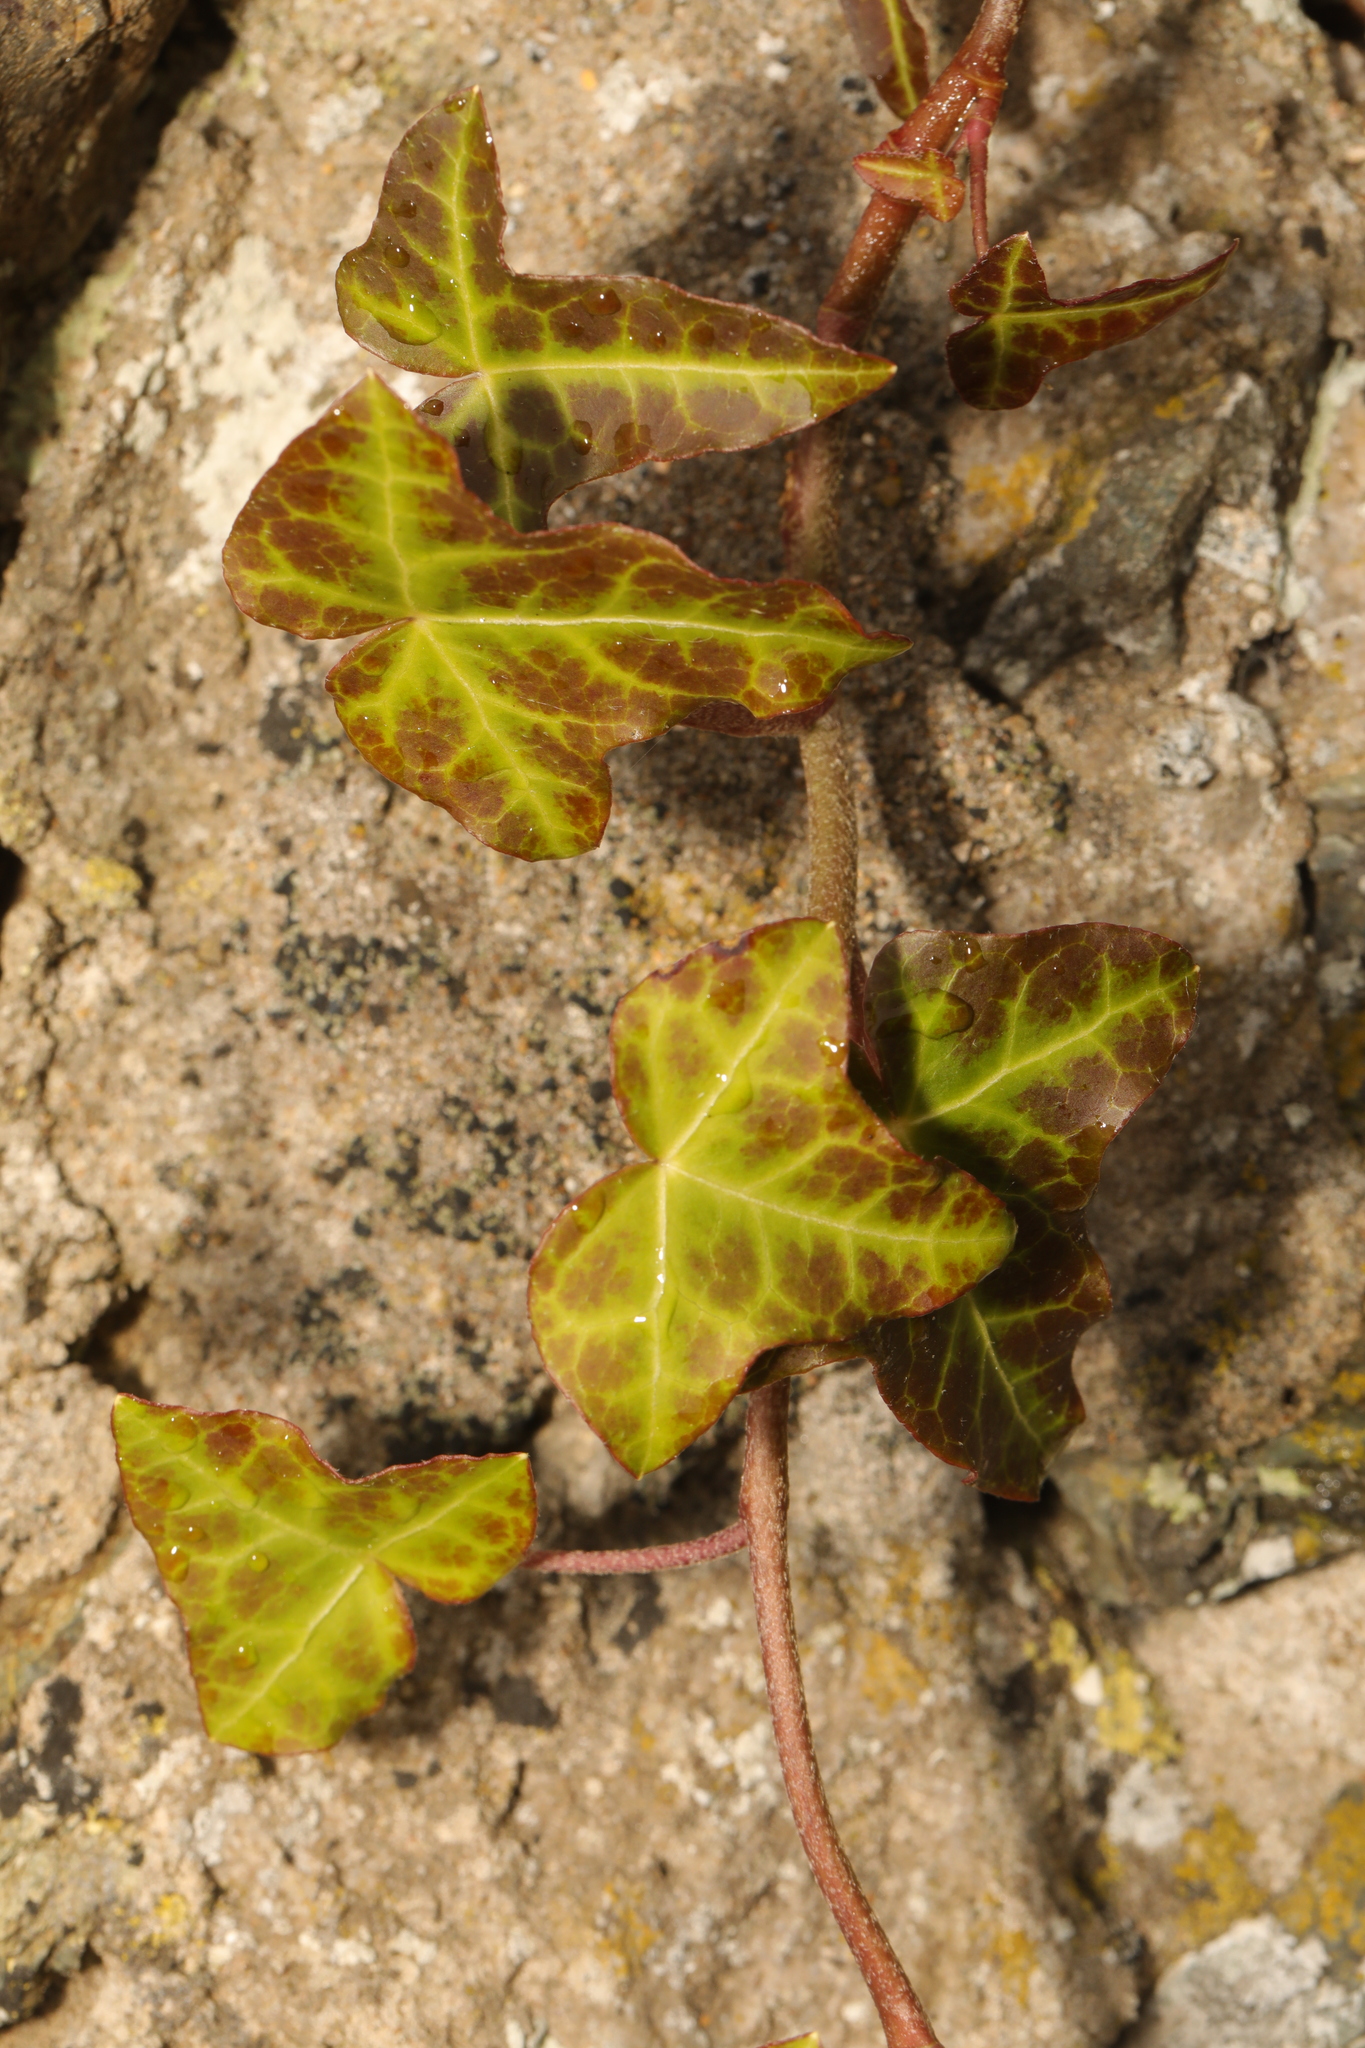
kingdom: Plantae
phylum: Tracheophyta
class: Magnoliopsida
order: Apiales
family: Araliaceae
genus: Hedera
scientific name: Hedera helix
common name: Ivy
